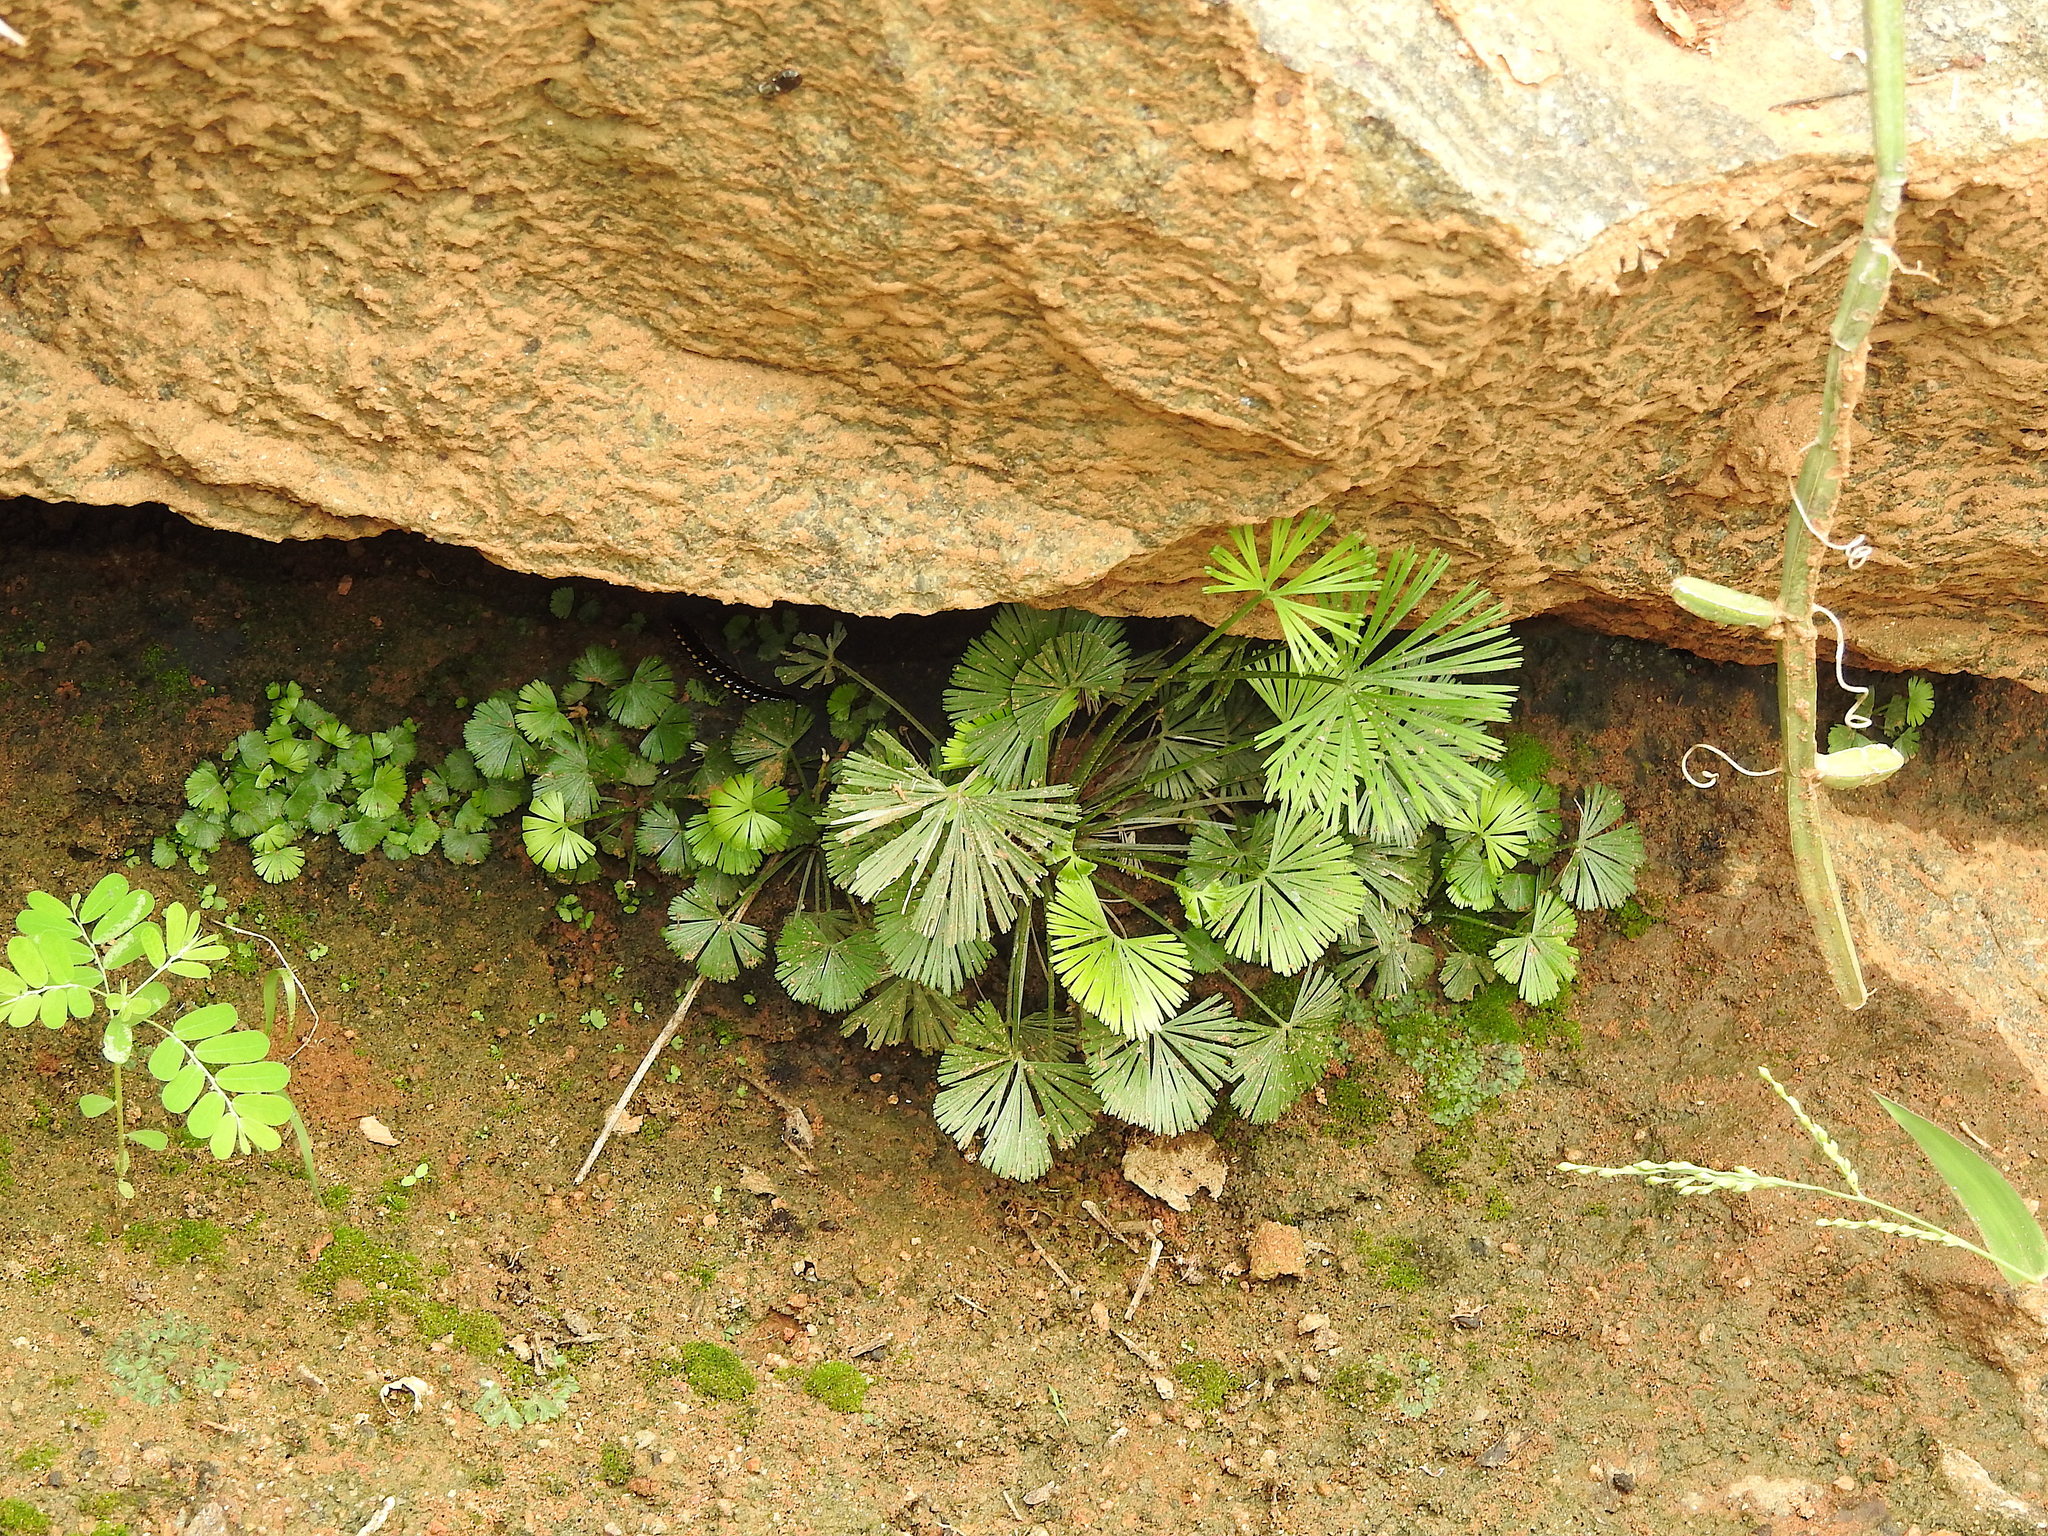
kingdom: Plantae
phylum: Tracheophyta
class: Polypodiopsida
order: Polypodiales
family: Pteridaceae
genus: Actiniopteris
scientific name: Actiniopteris radiata
